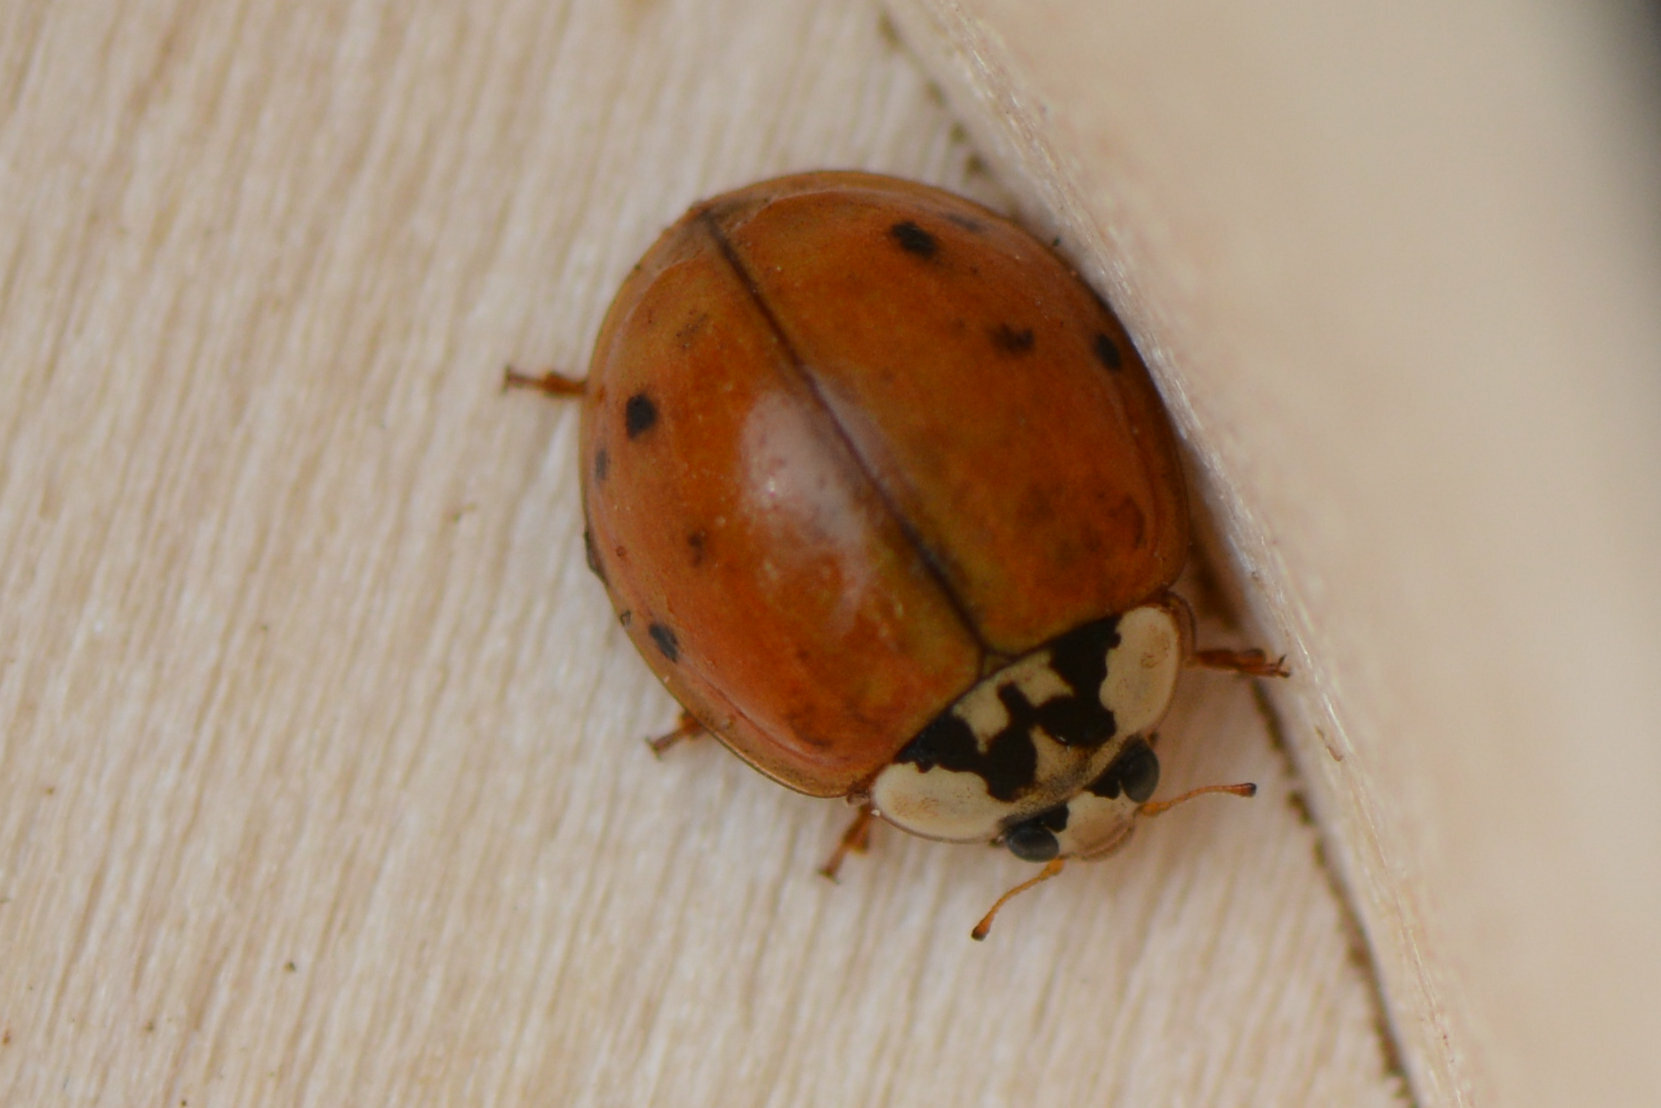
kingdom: Animalia
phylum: Arthropoda
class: Insecta
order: Coleoptera
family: Coccinellidae
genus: Harmonia
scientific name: Harmonia axyridis
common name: Harlequin ladybird
